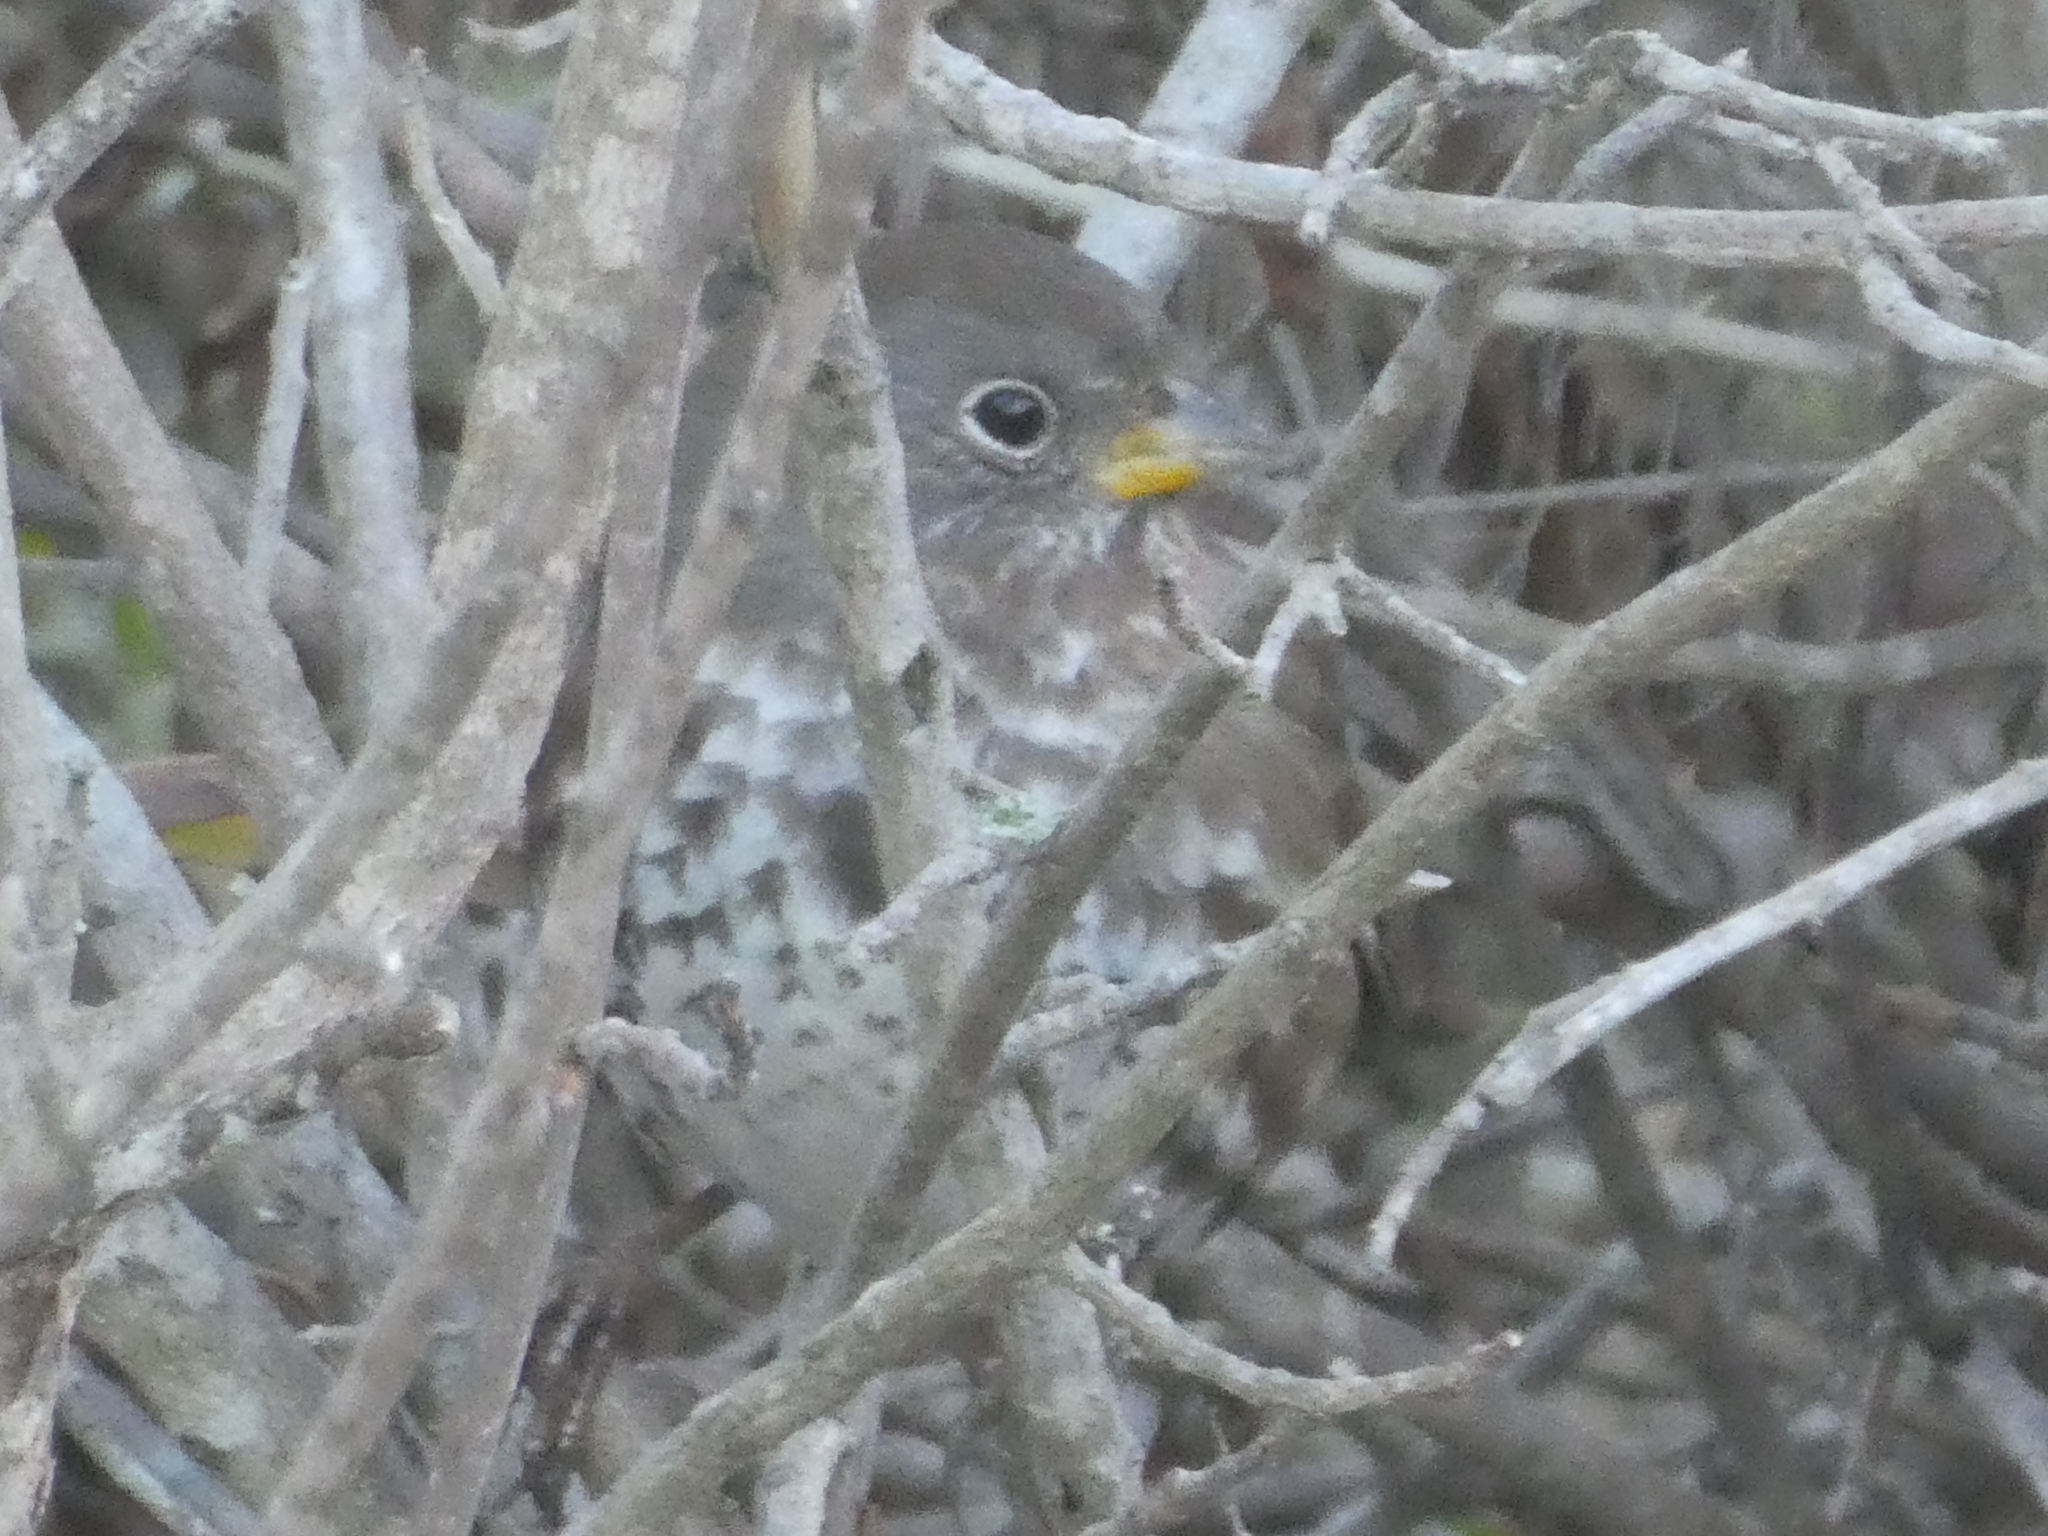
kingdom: Animalia
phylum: Chordata
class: Aves
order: Passeriformes
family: Passerellidae
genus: Passerella
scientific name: Passerella iliaca
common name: Fox sparrow
